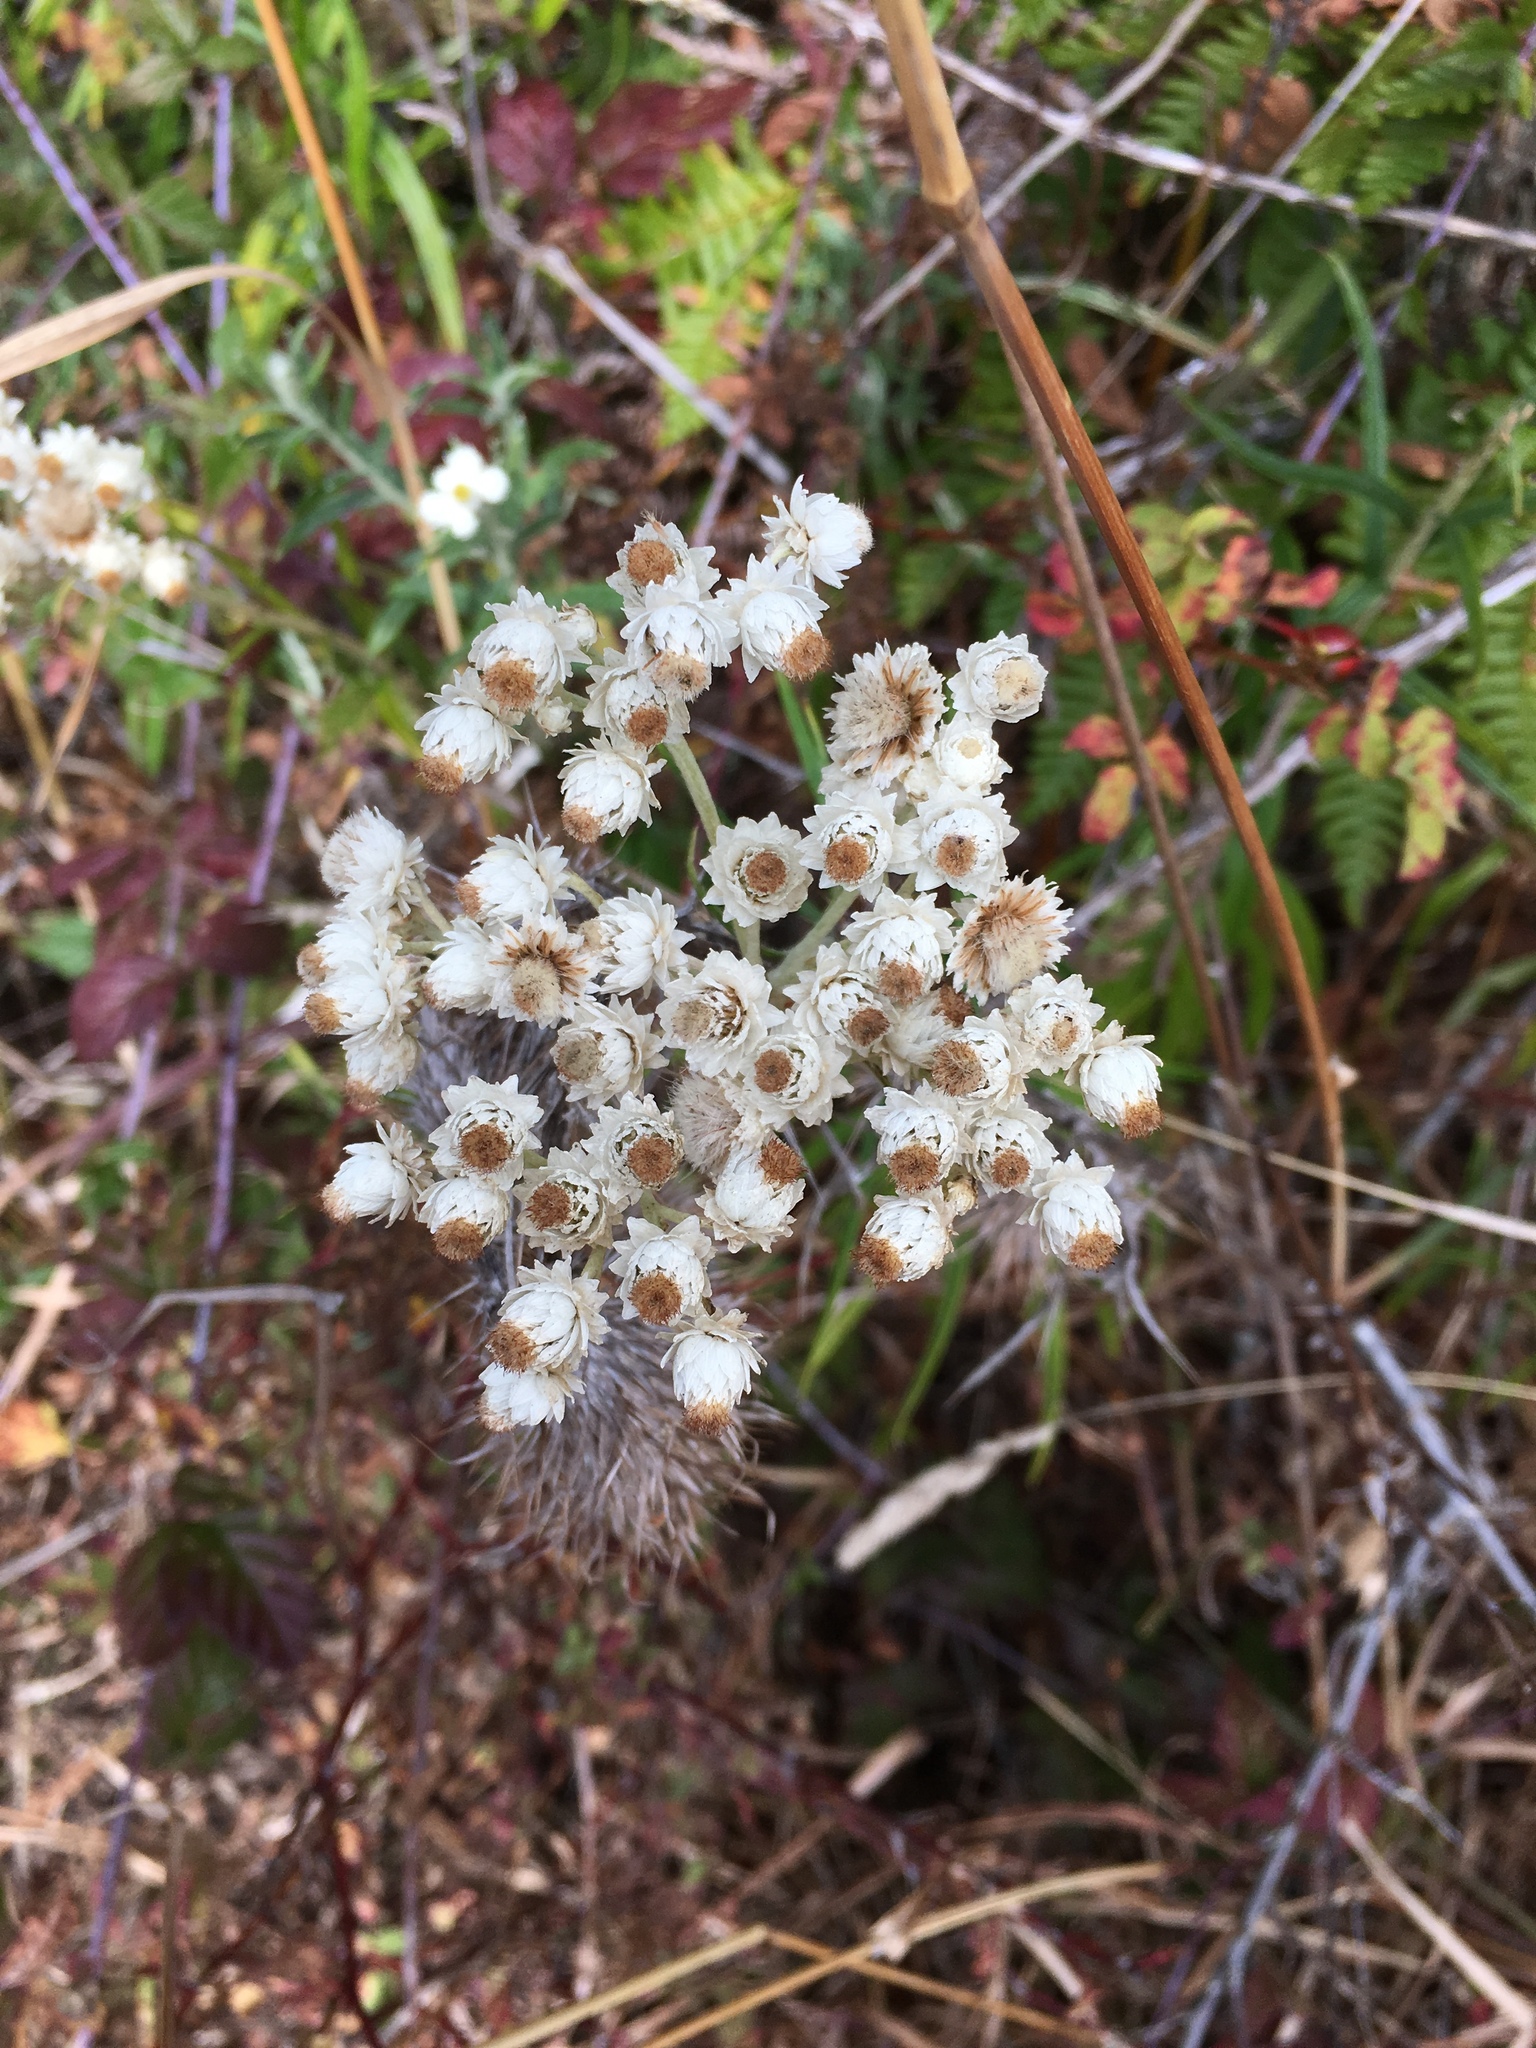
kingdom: Plantae
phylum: Tracheophyta
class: Magnoliopsida
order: Asterales
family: Asteraceae
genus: Anaphalis
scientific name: Anaphalis margaritacea
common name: Pearly everlasting
